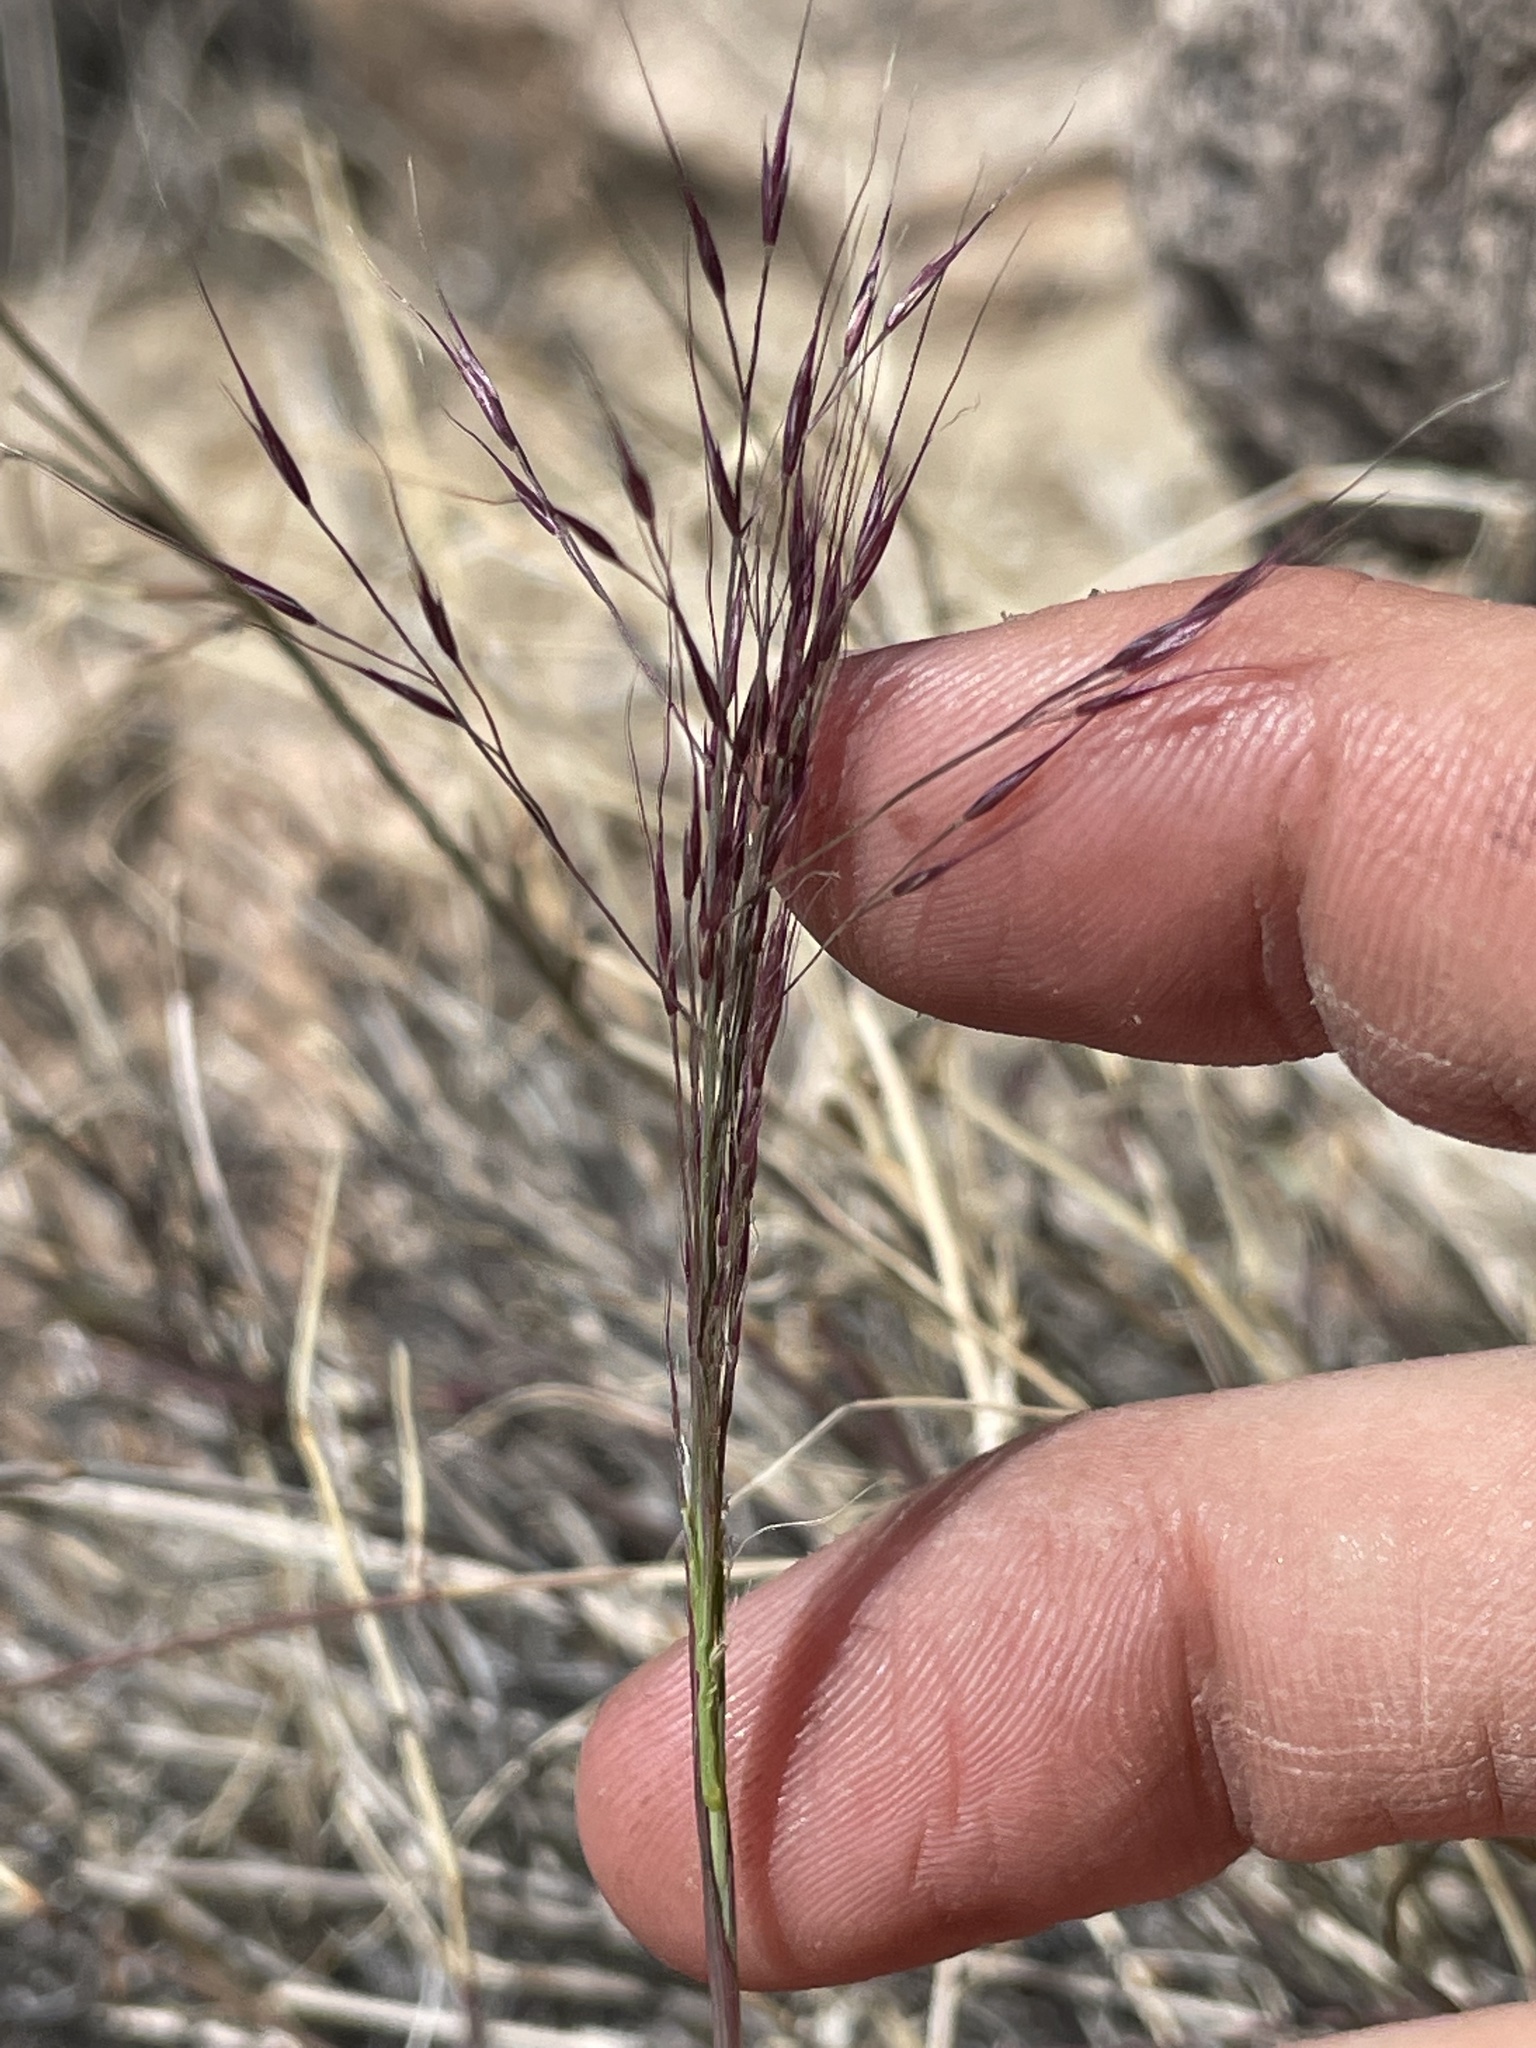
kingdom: Plantae
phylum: Tracheophyta
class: Liliopsida
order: Poales
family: Poaceae
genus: Muhlenbergia
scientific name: Muhlenbergia porteri
